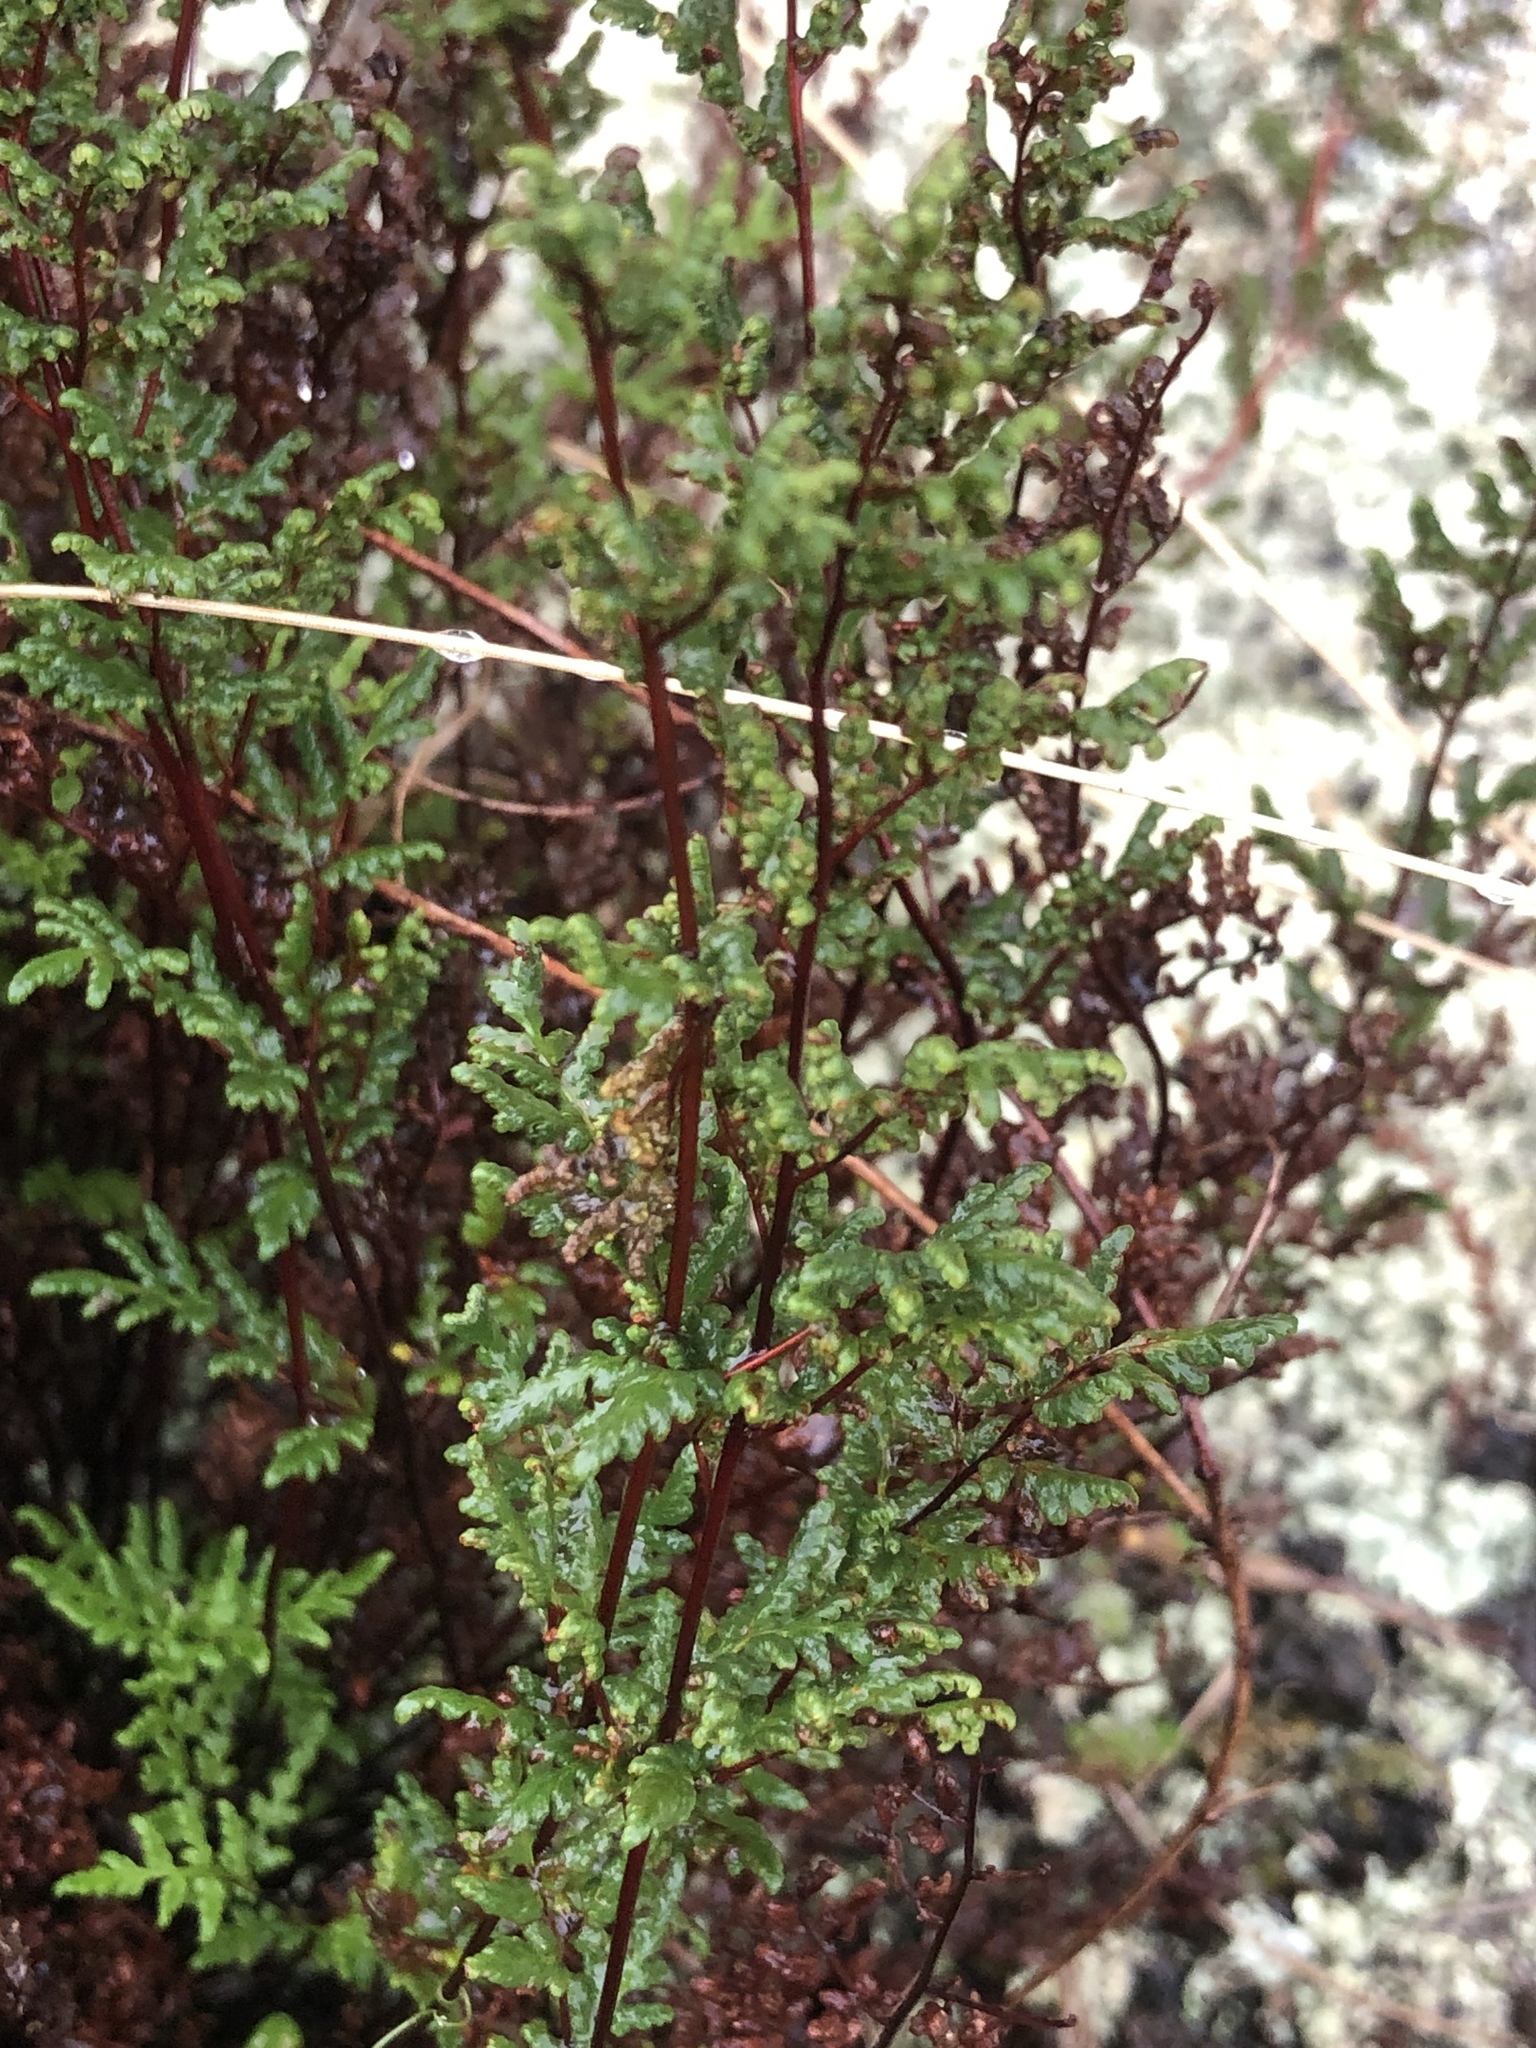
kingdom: Plantae
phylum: Tracheophyta
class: Polypodiopsida
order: Polypodiales
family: Pteridaceae
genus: Cheilanthes
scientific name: Cheilanthes sieberi
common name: Mulga fern
